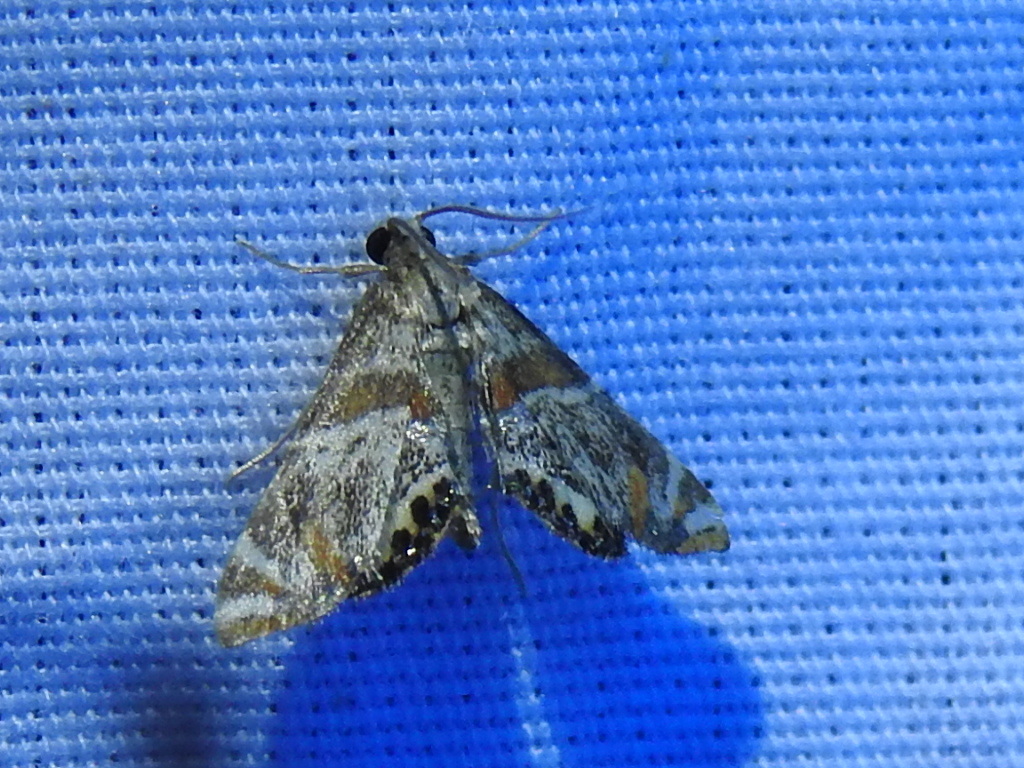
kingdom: Animalia
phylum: Arthropoda
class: Insecta
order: Lepidoptera
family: Crambidae
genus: Petrophila
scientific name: Petrophila jaliscalis
